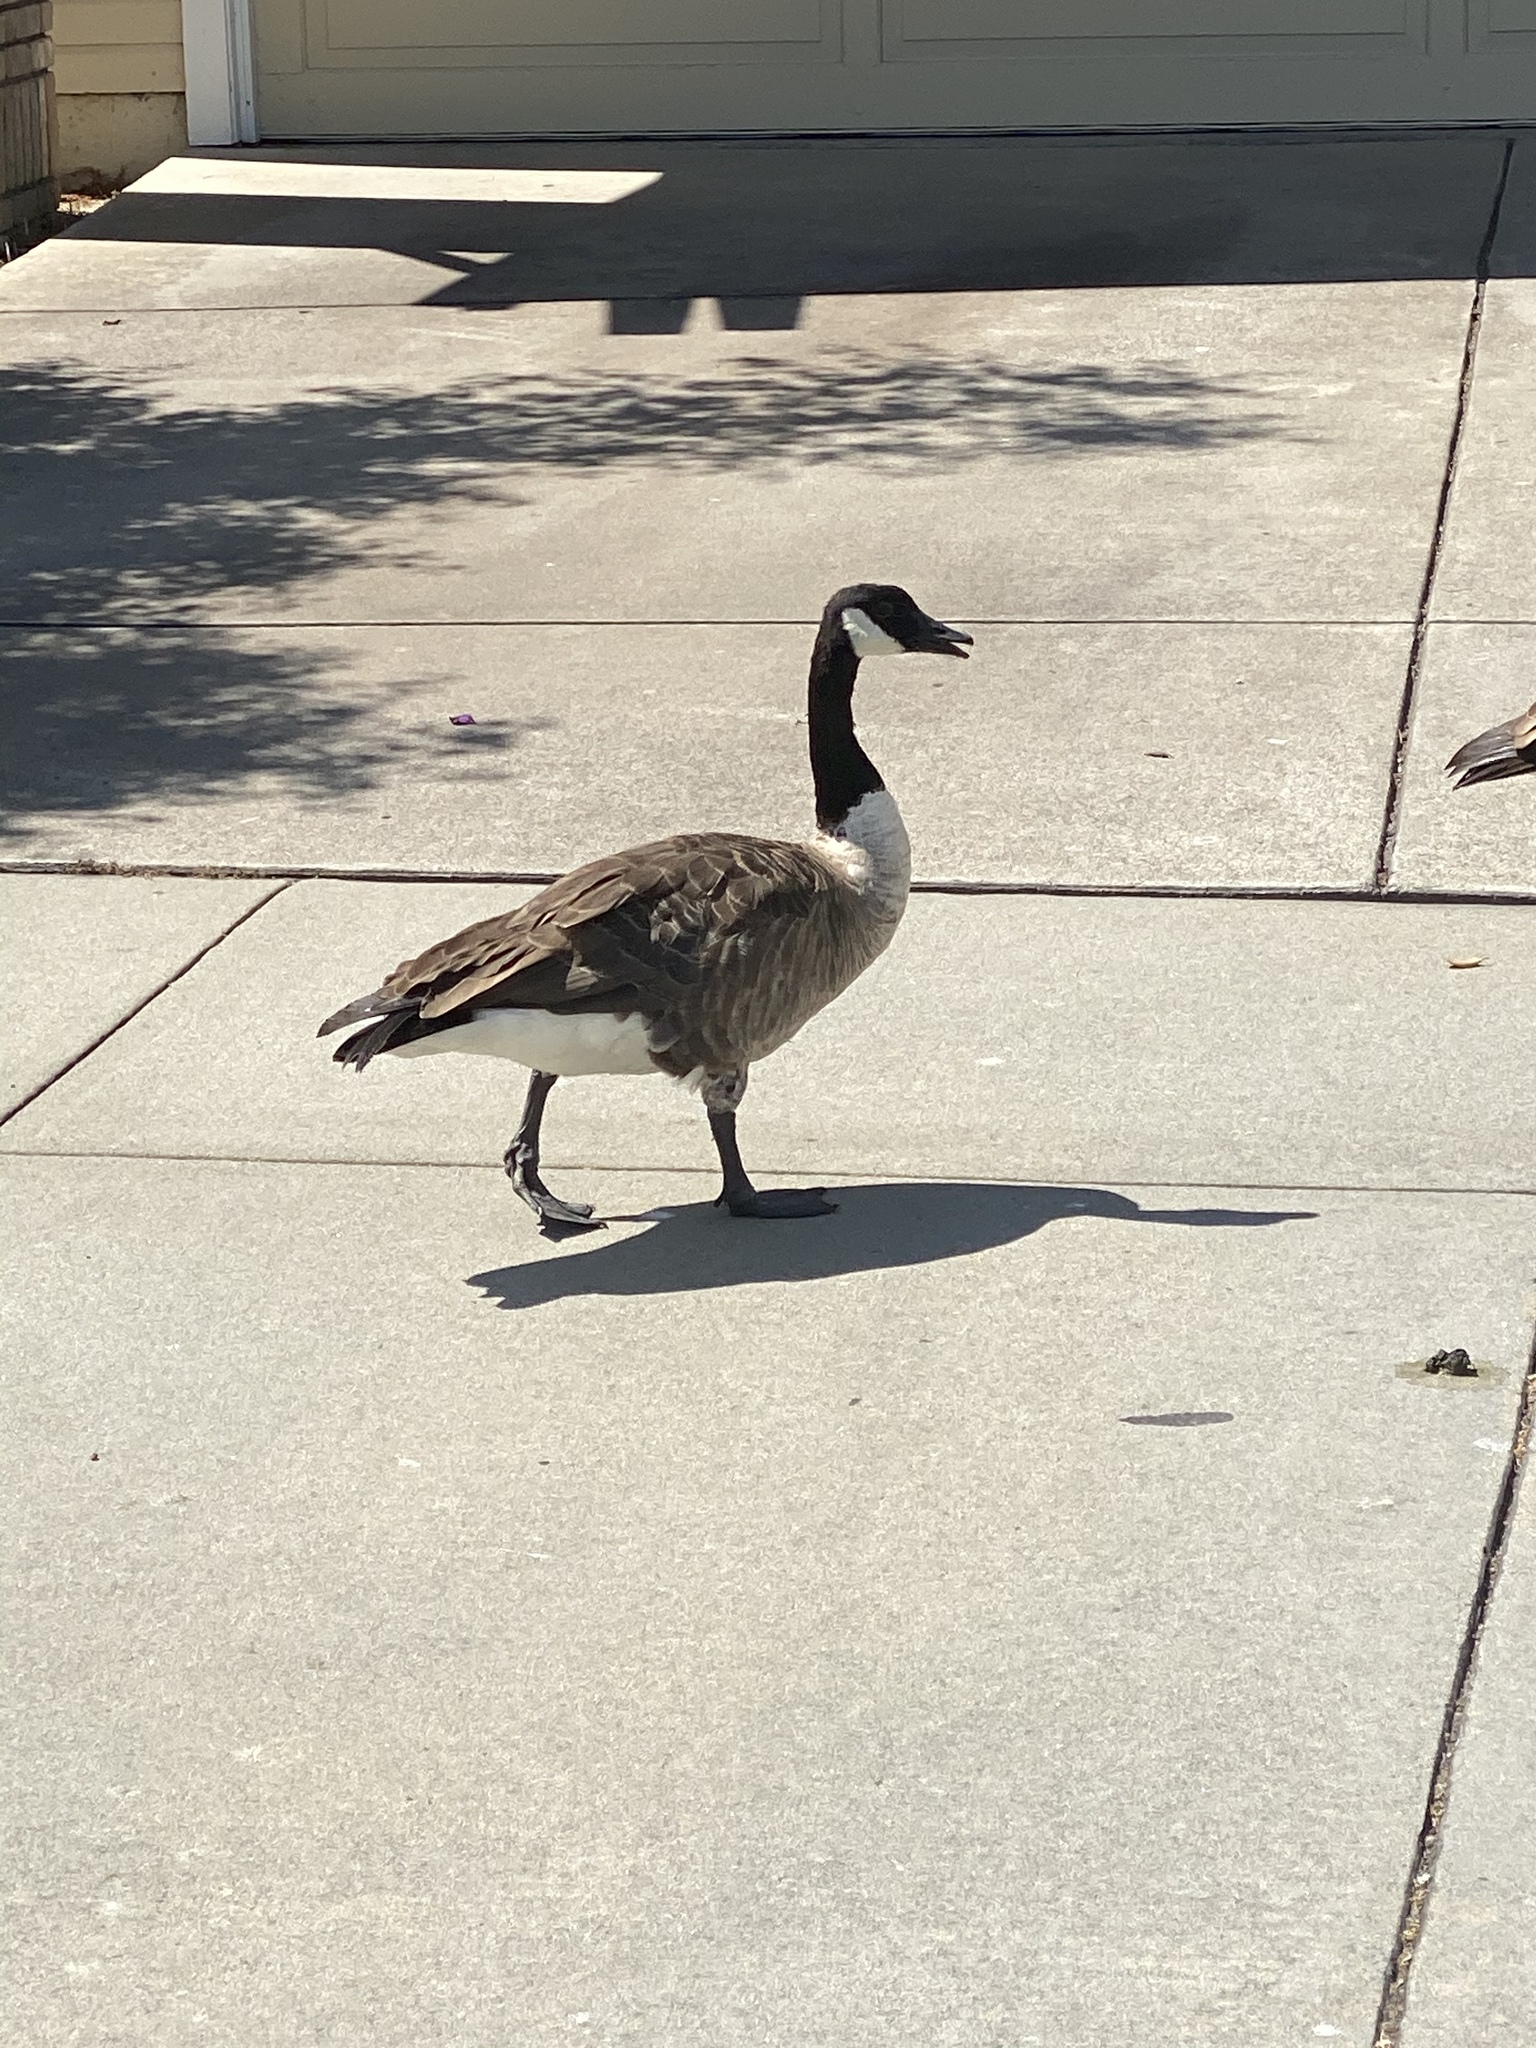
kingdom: Animalia
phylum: Chordata
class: Aves
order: Anseriformes
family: Anatidae
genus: Branta
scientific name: Branta canadensis
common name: Canada goose
